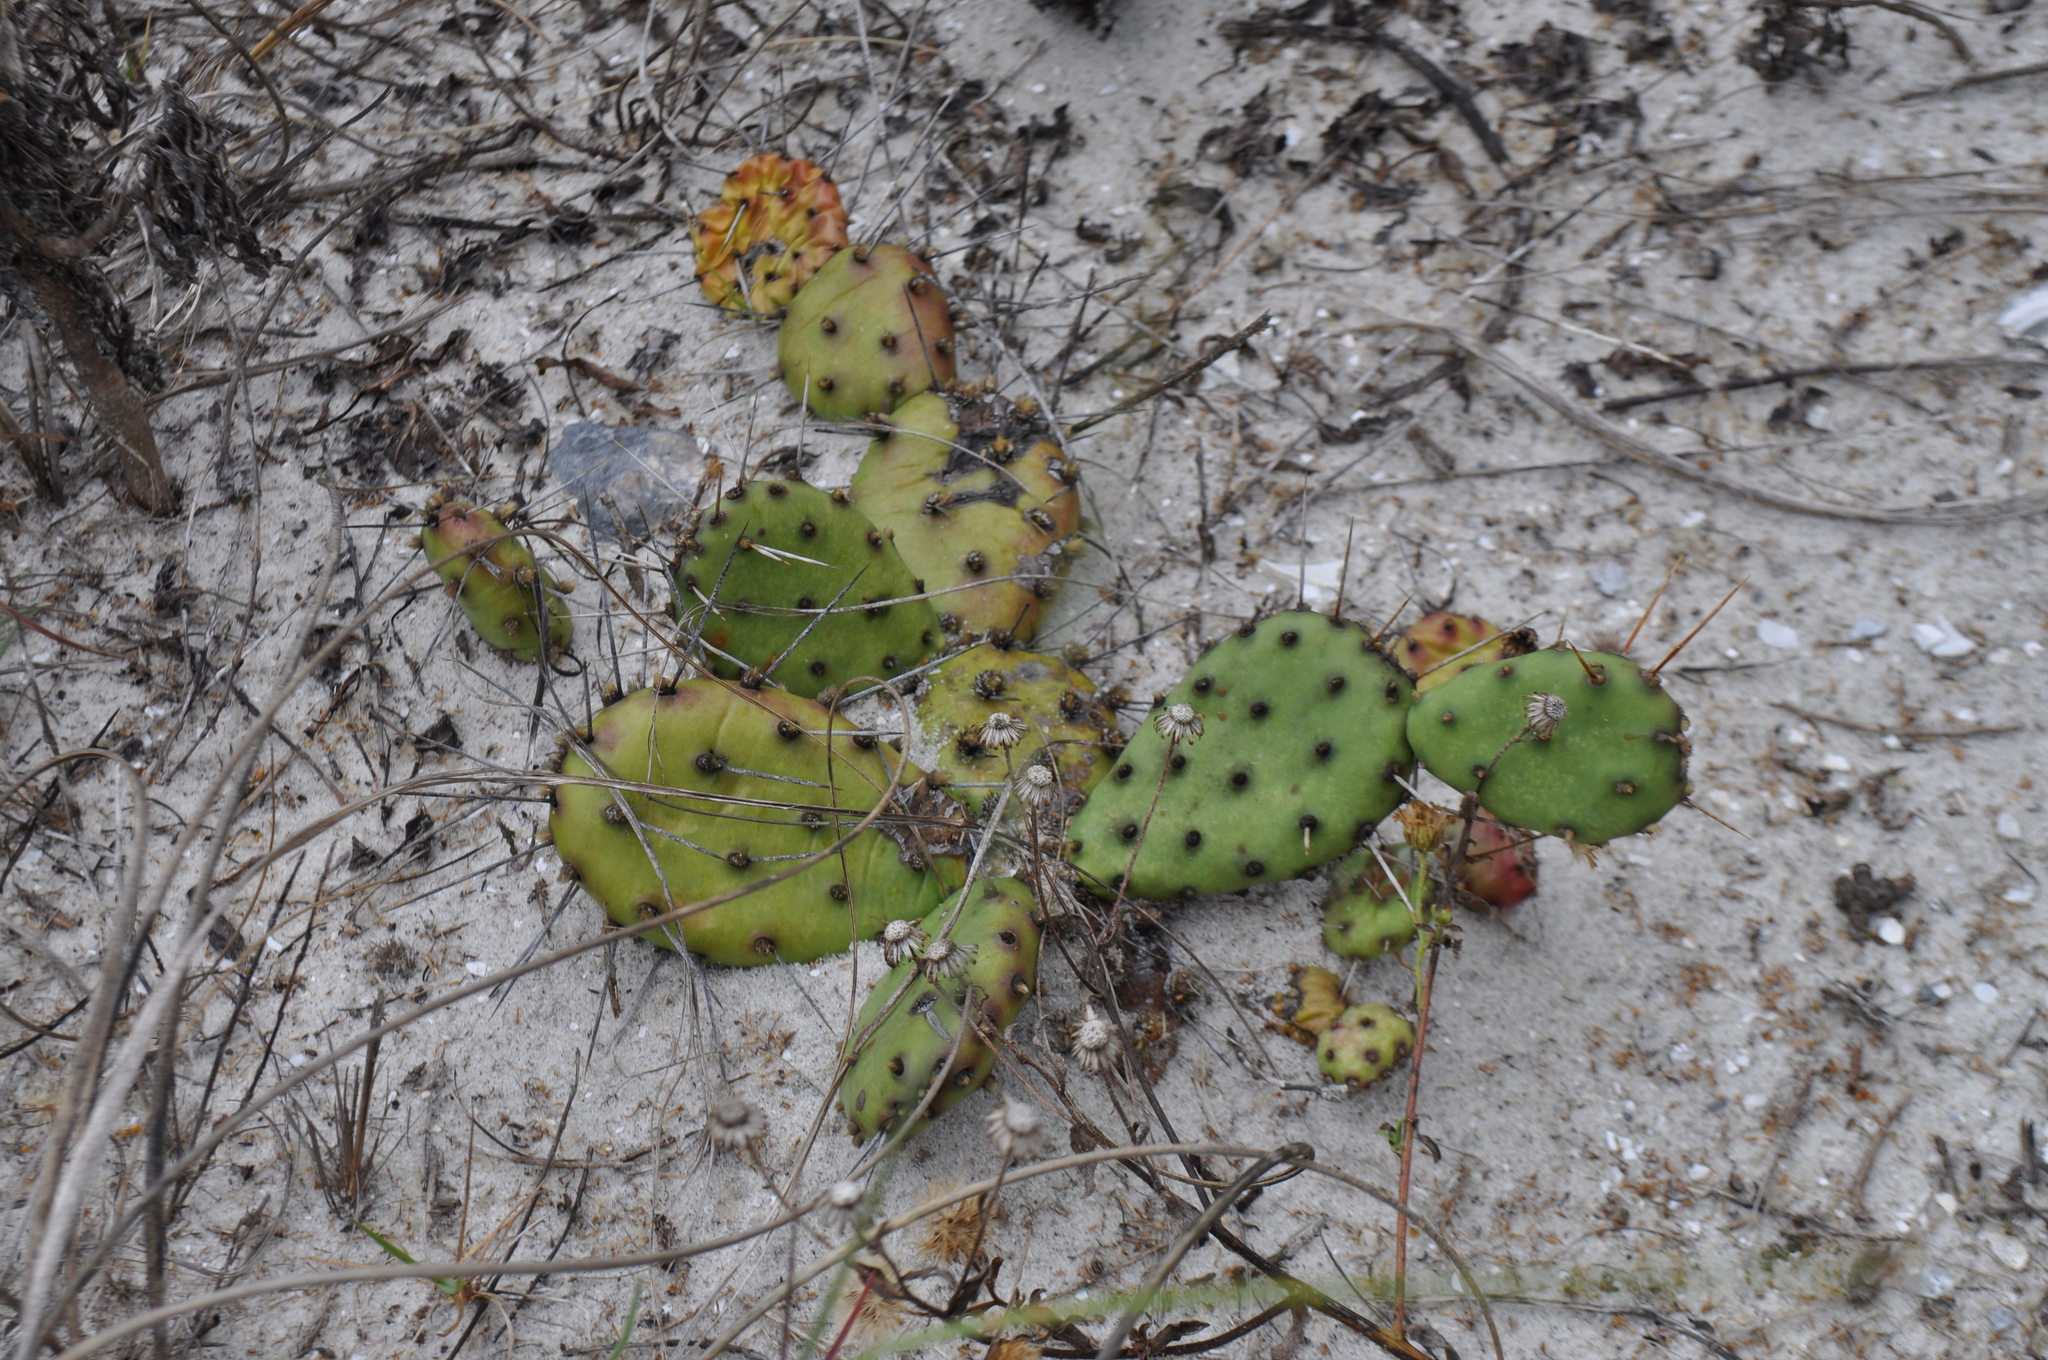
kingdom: Plantae
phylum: Tracheophyta
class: Magnoliopsida
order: Caryophyllales
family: Cactaceae
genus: Opuntia
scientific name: Opuntia mesacantha
